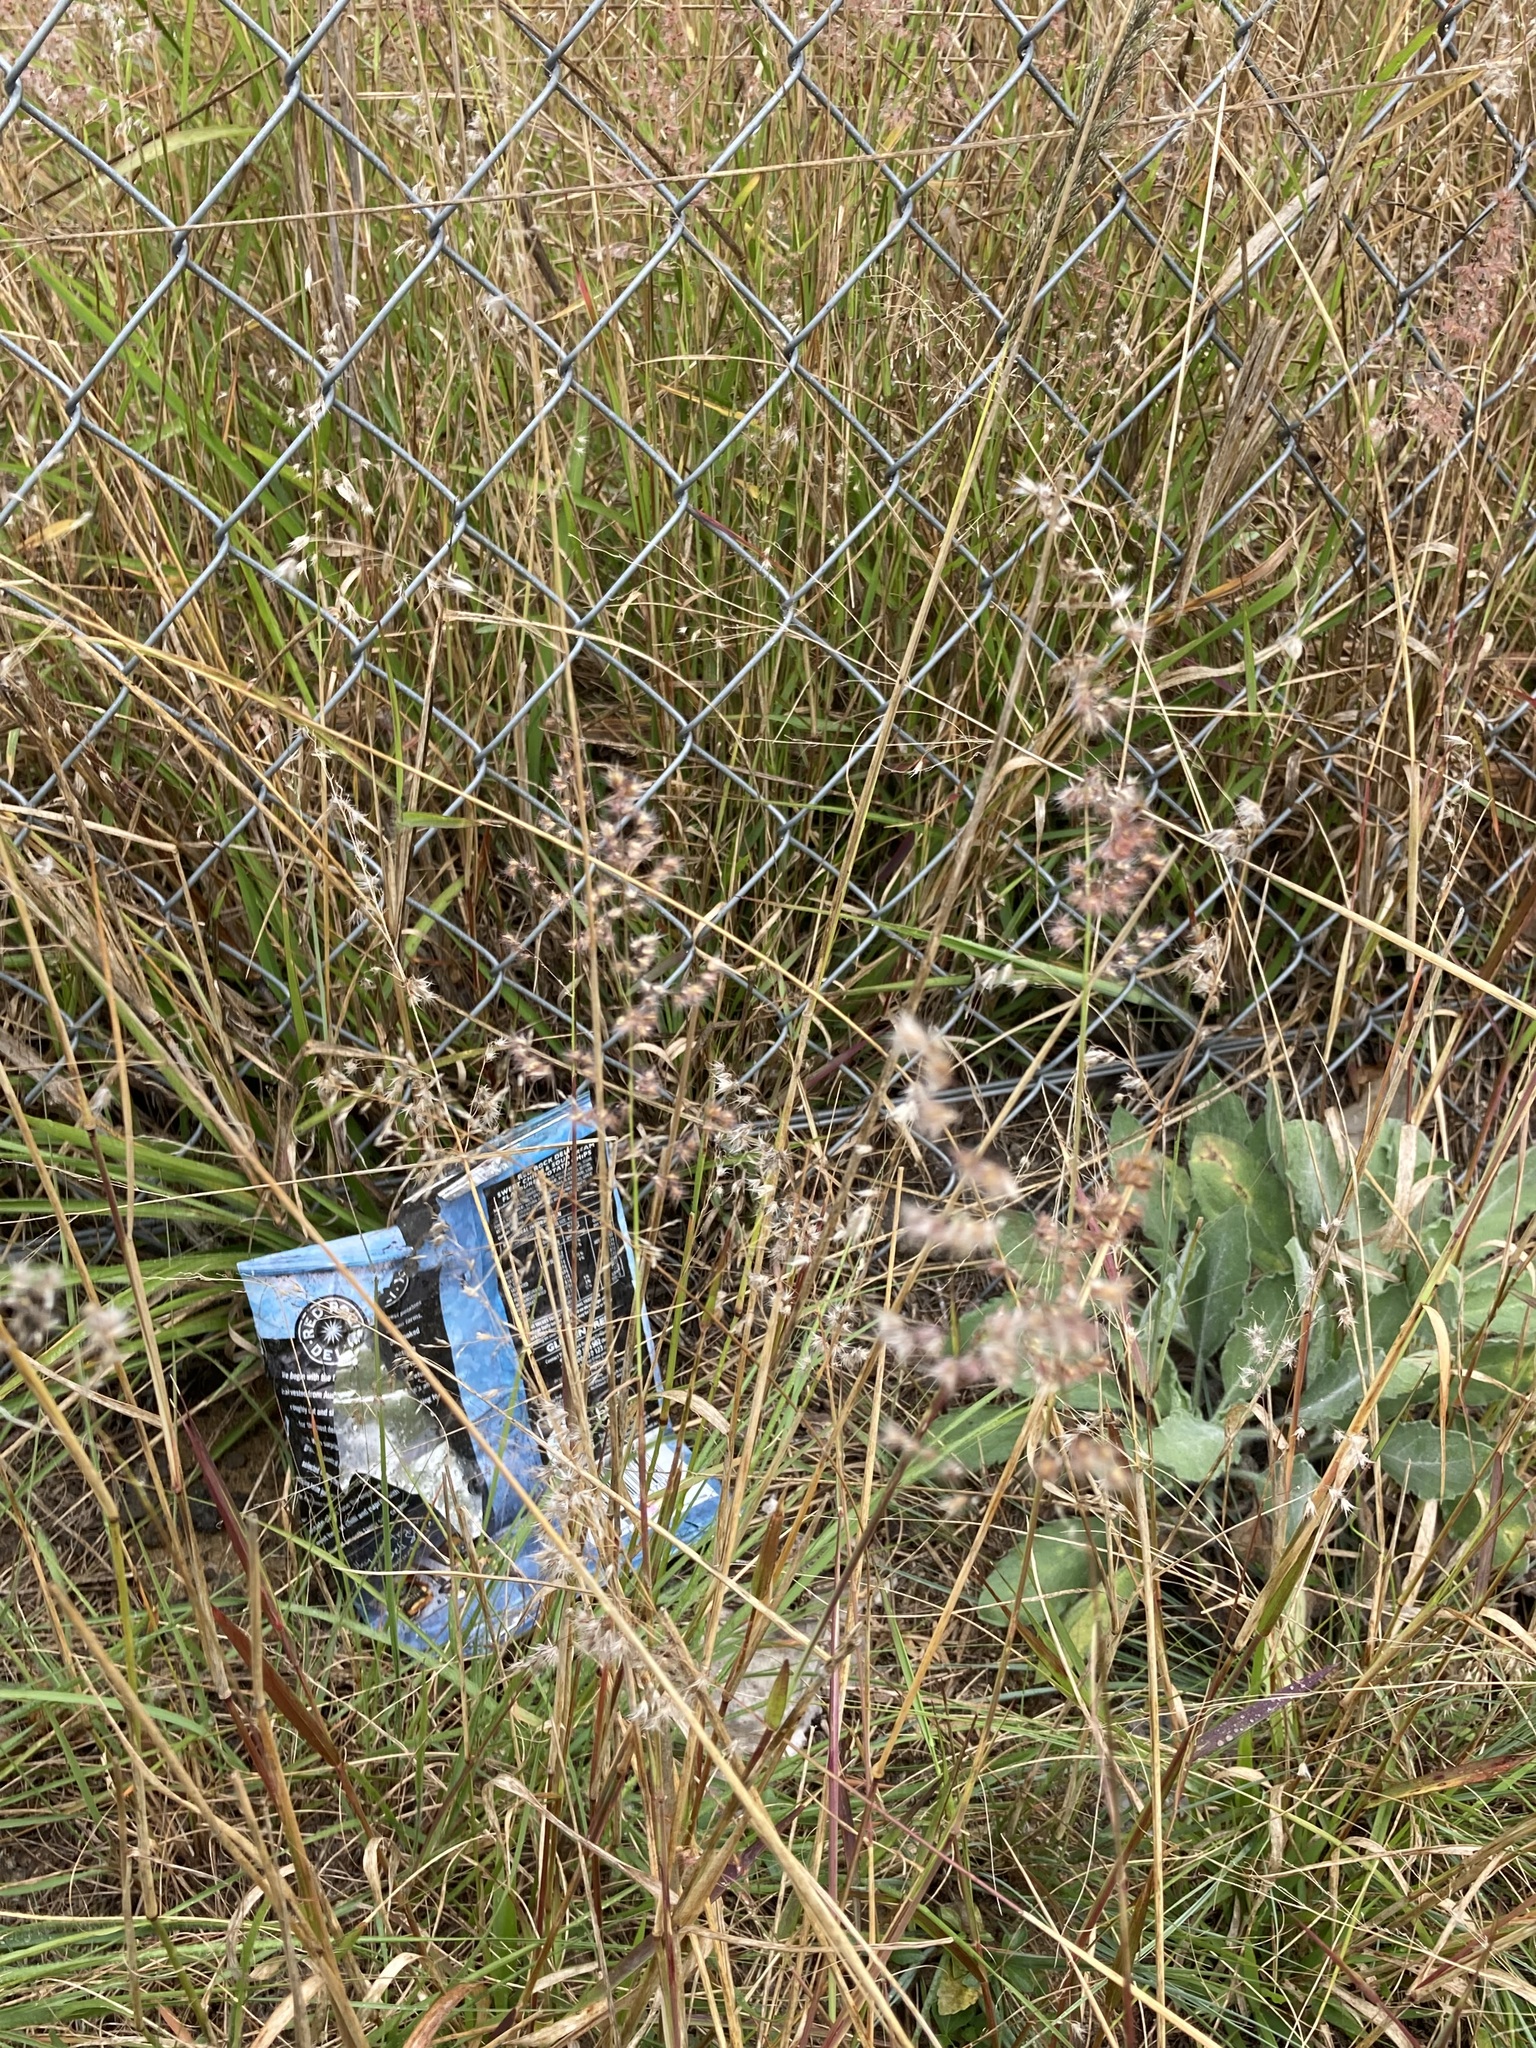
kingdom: Plantae
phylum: Tracheophyta
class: Liliopsida
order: Poales
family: Poaceae
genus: Melinis
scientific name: Melinis repens
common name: Rose natal grass
